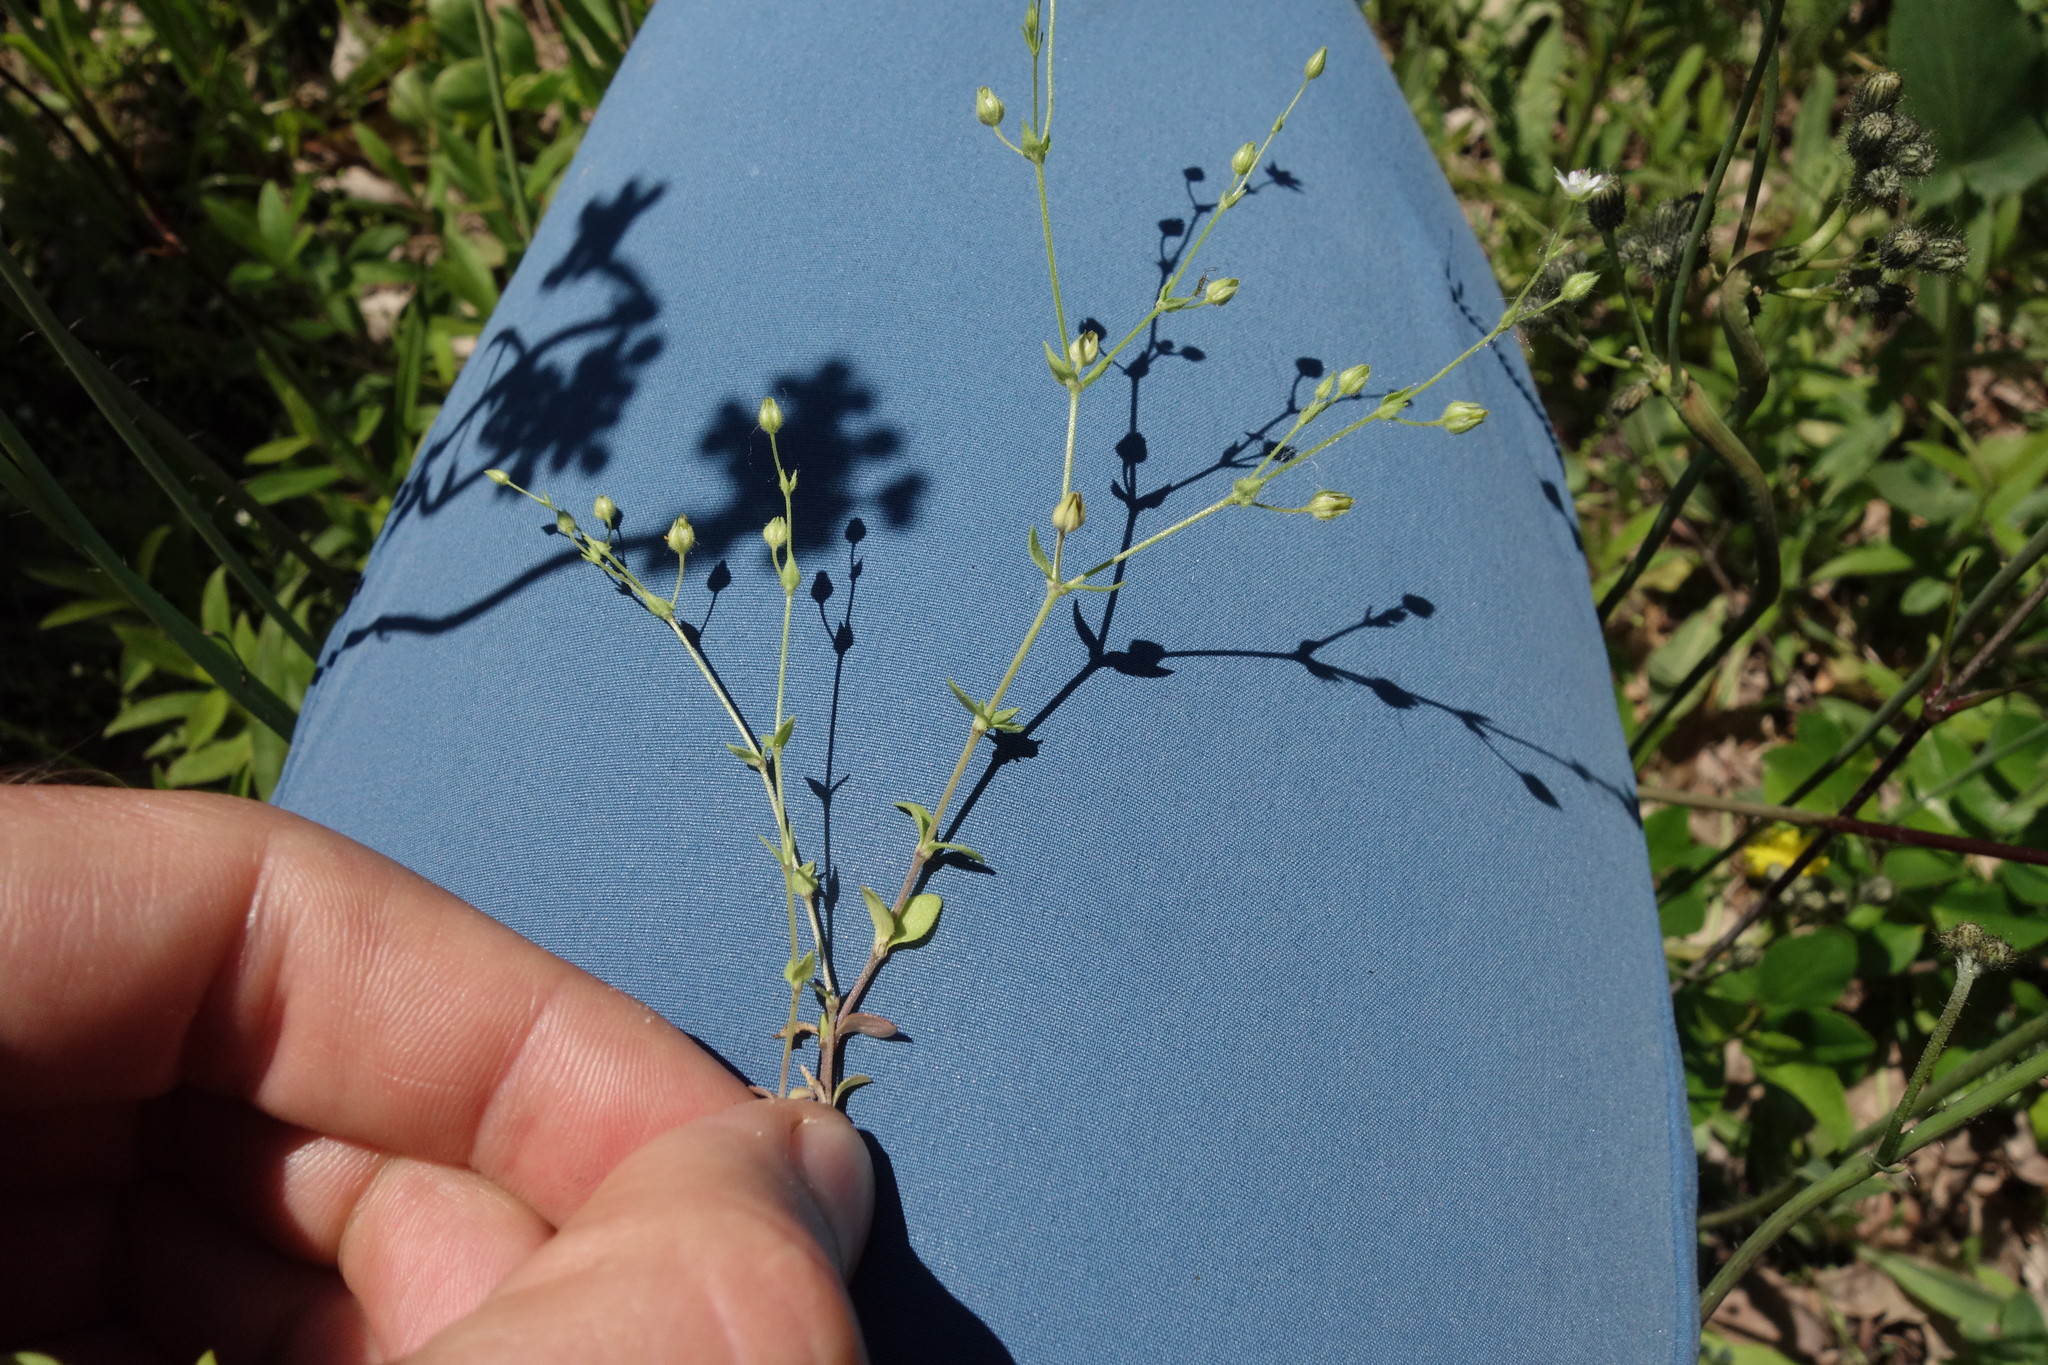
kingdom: Plantae
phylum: Tracheophyta
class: Magnoliopsida
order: Caryophyllales
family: Caryophyllaceae
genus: Arenaria
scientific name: Arenaria serpyllifolia
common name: Thyme-leaved sandwort
